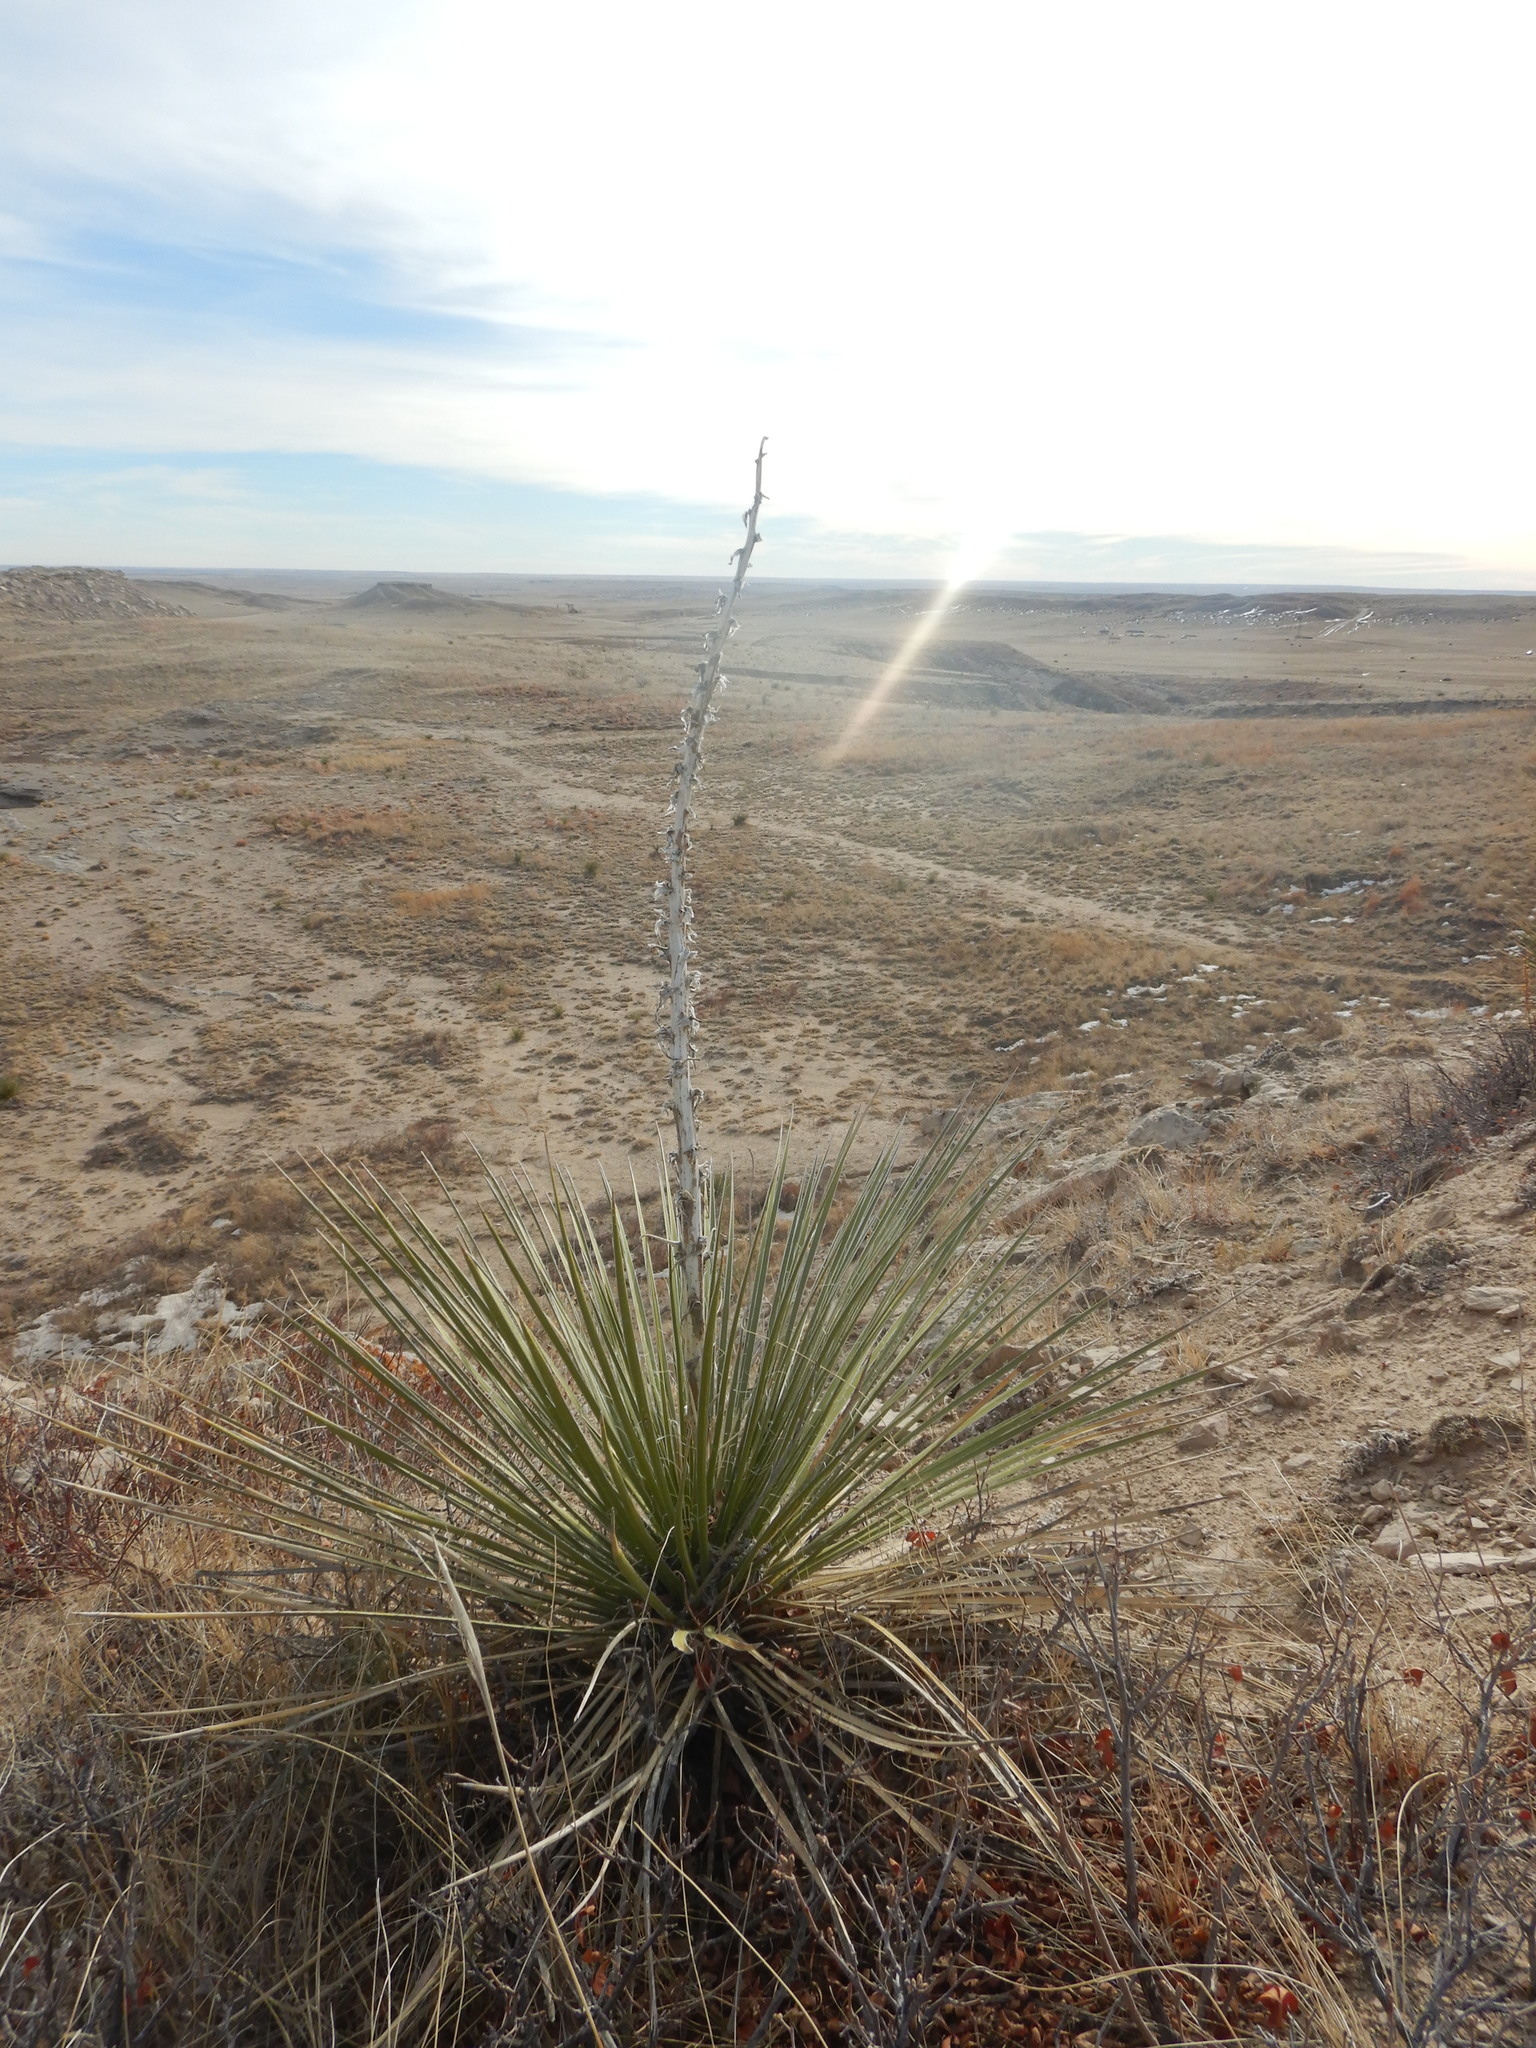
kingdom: Plantae
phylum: Tracheophyta
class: Liliopsida
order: Asparagales
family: Asparagaceae
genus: Yucca
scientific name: Yucca glauca
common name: Great plains yucca
